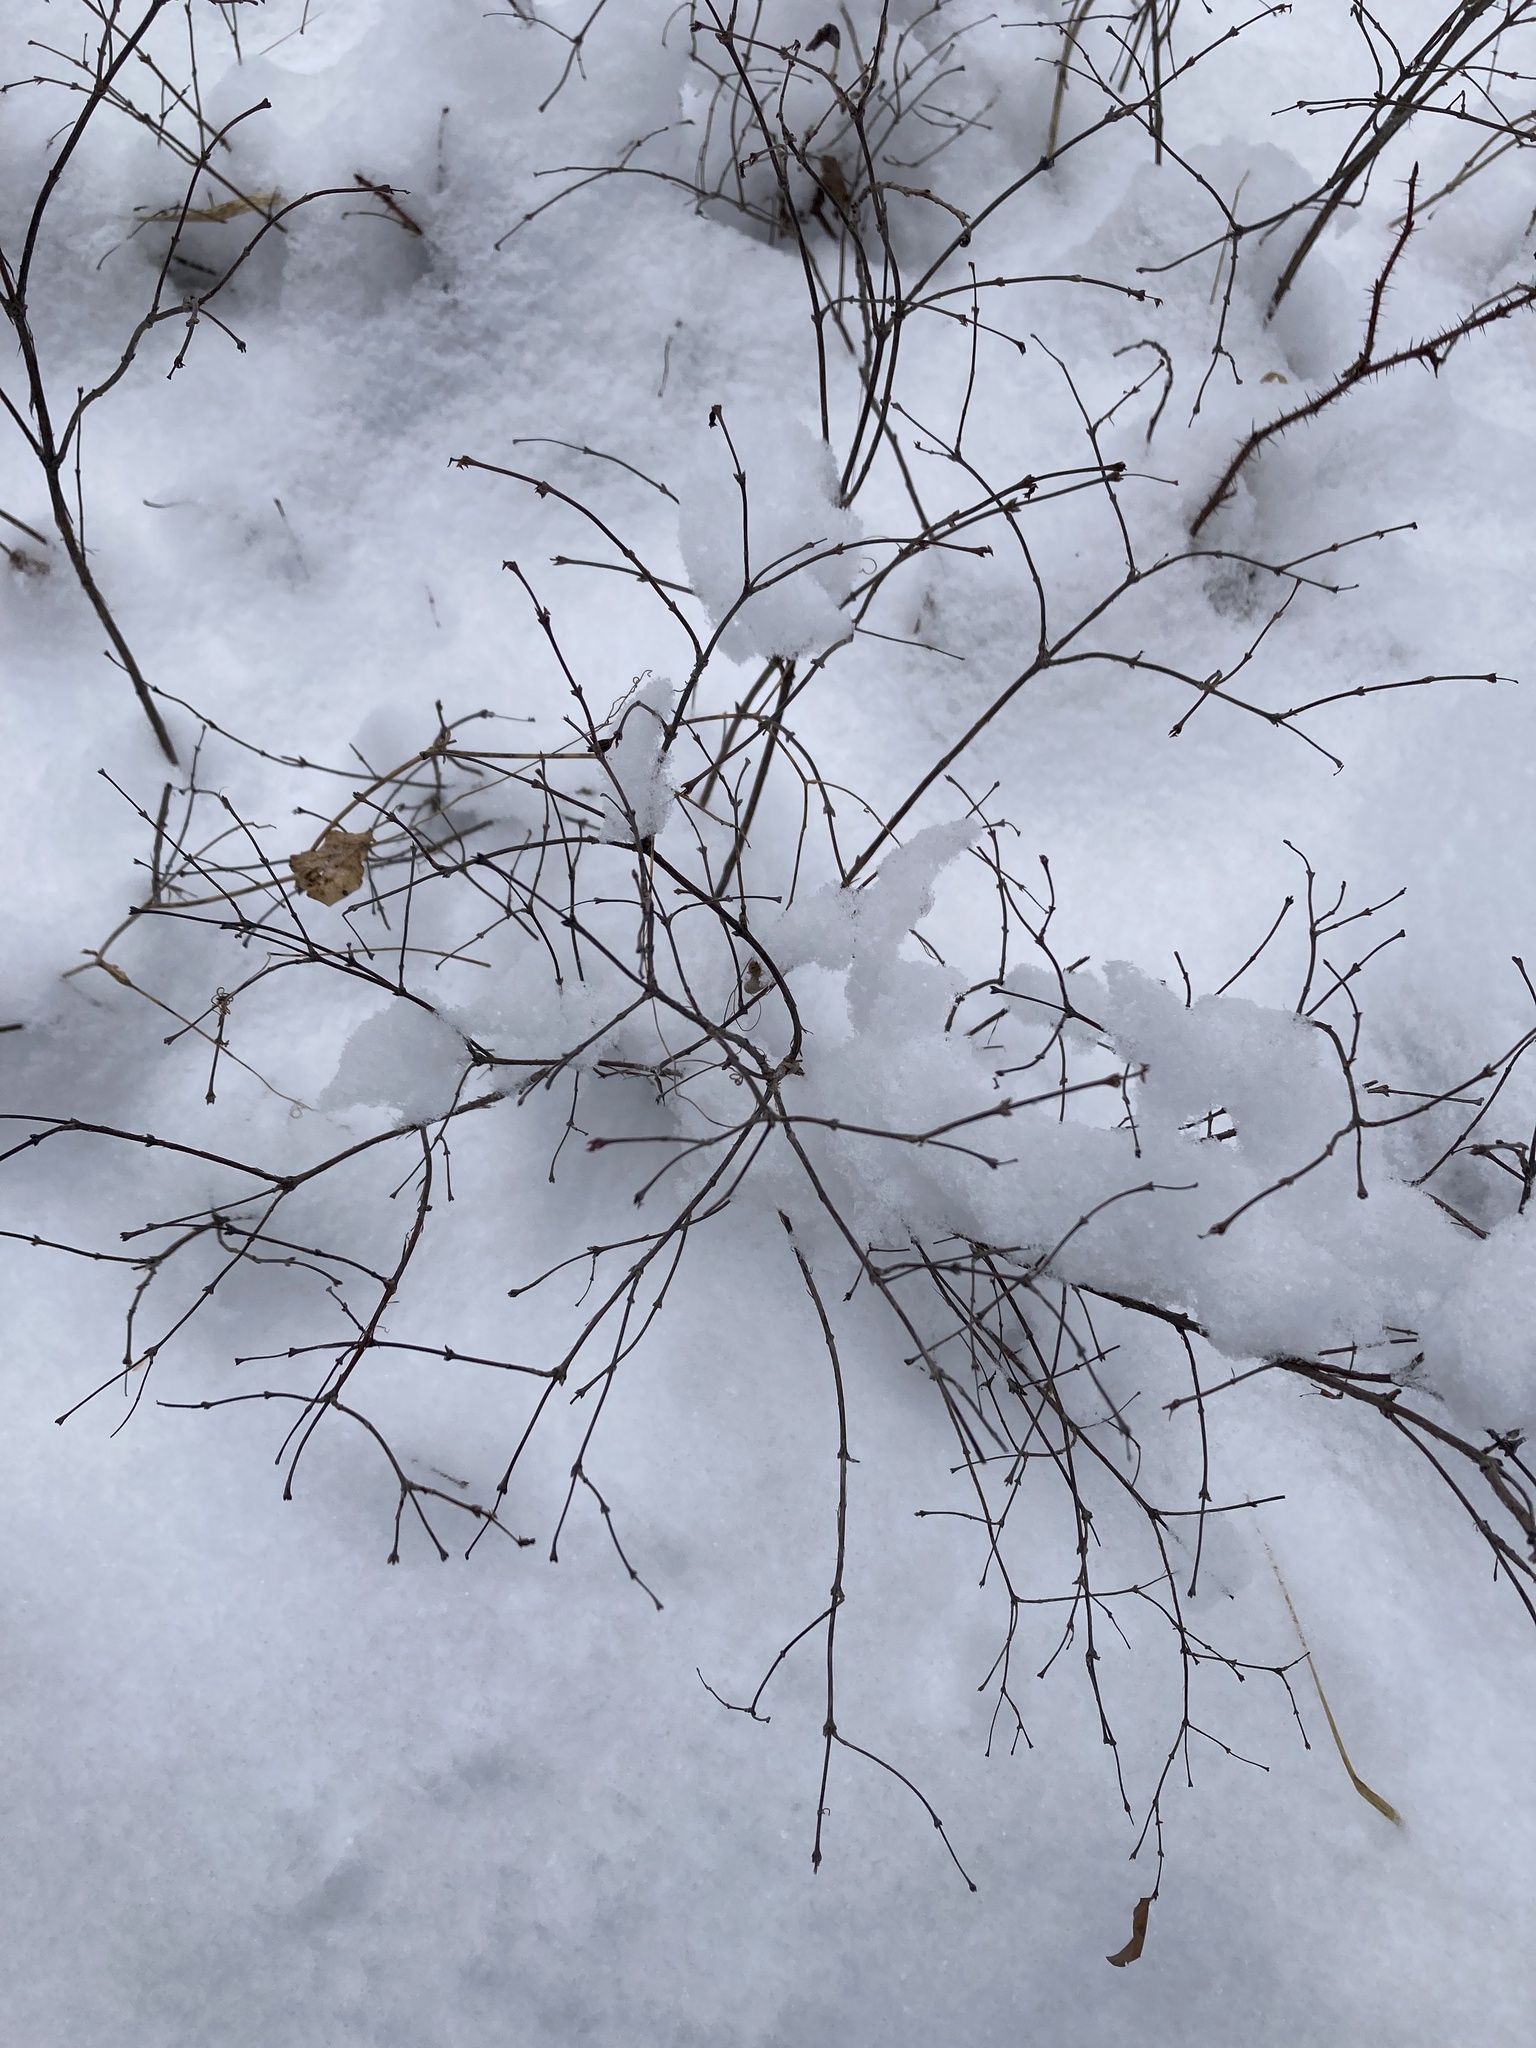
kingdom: Plantae
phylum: Tracheophyta
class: Magnoliopsida
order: Dipsacales
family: Caprifoliaceae
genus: Symphoricarpos
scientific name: Symphoricarpos albus
